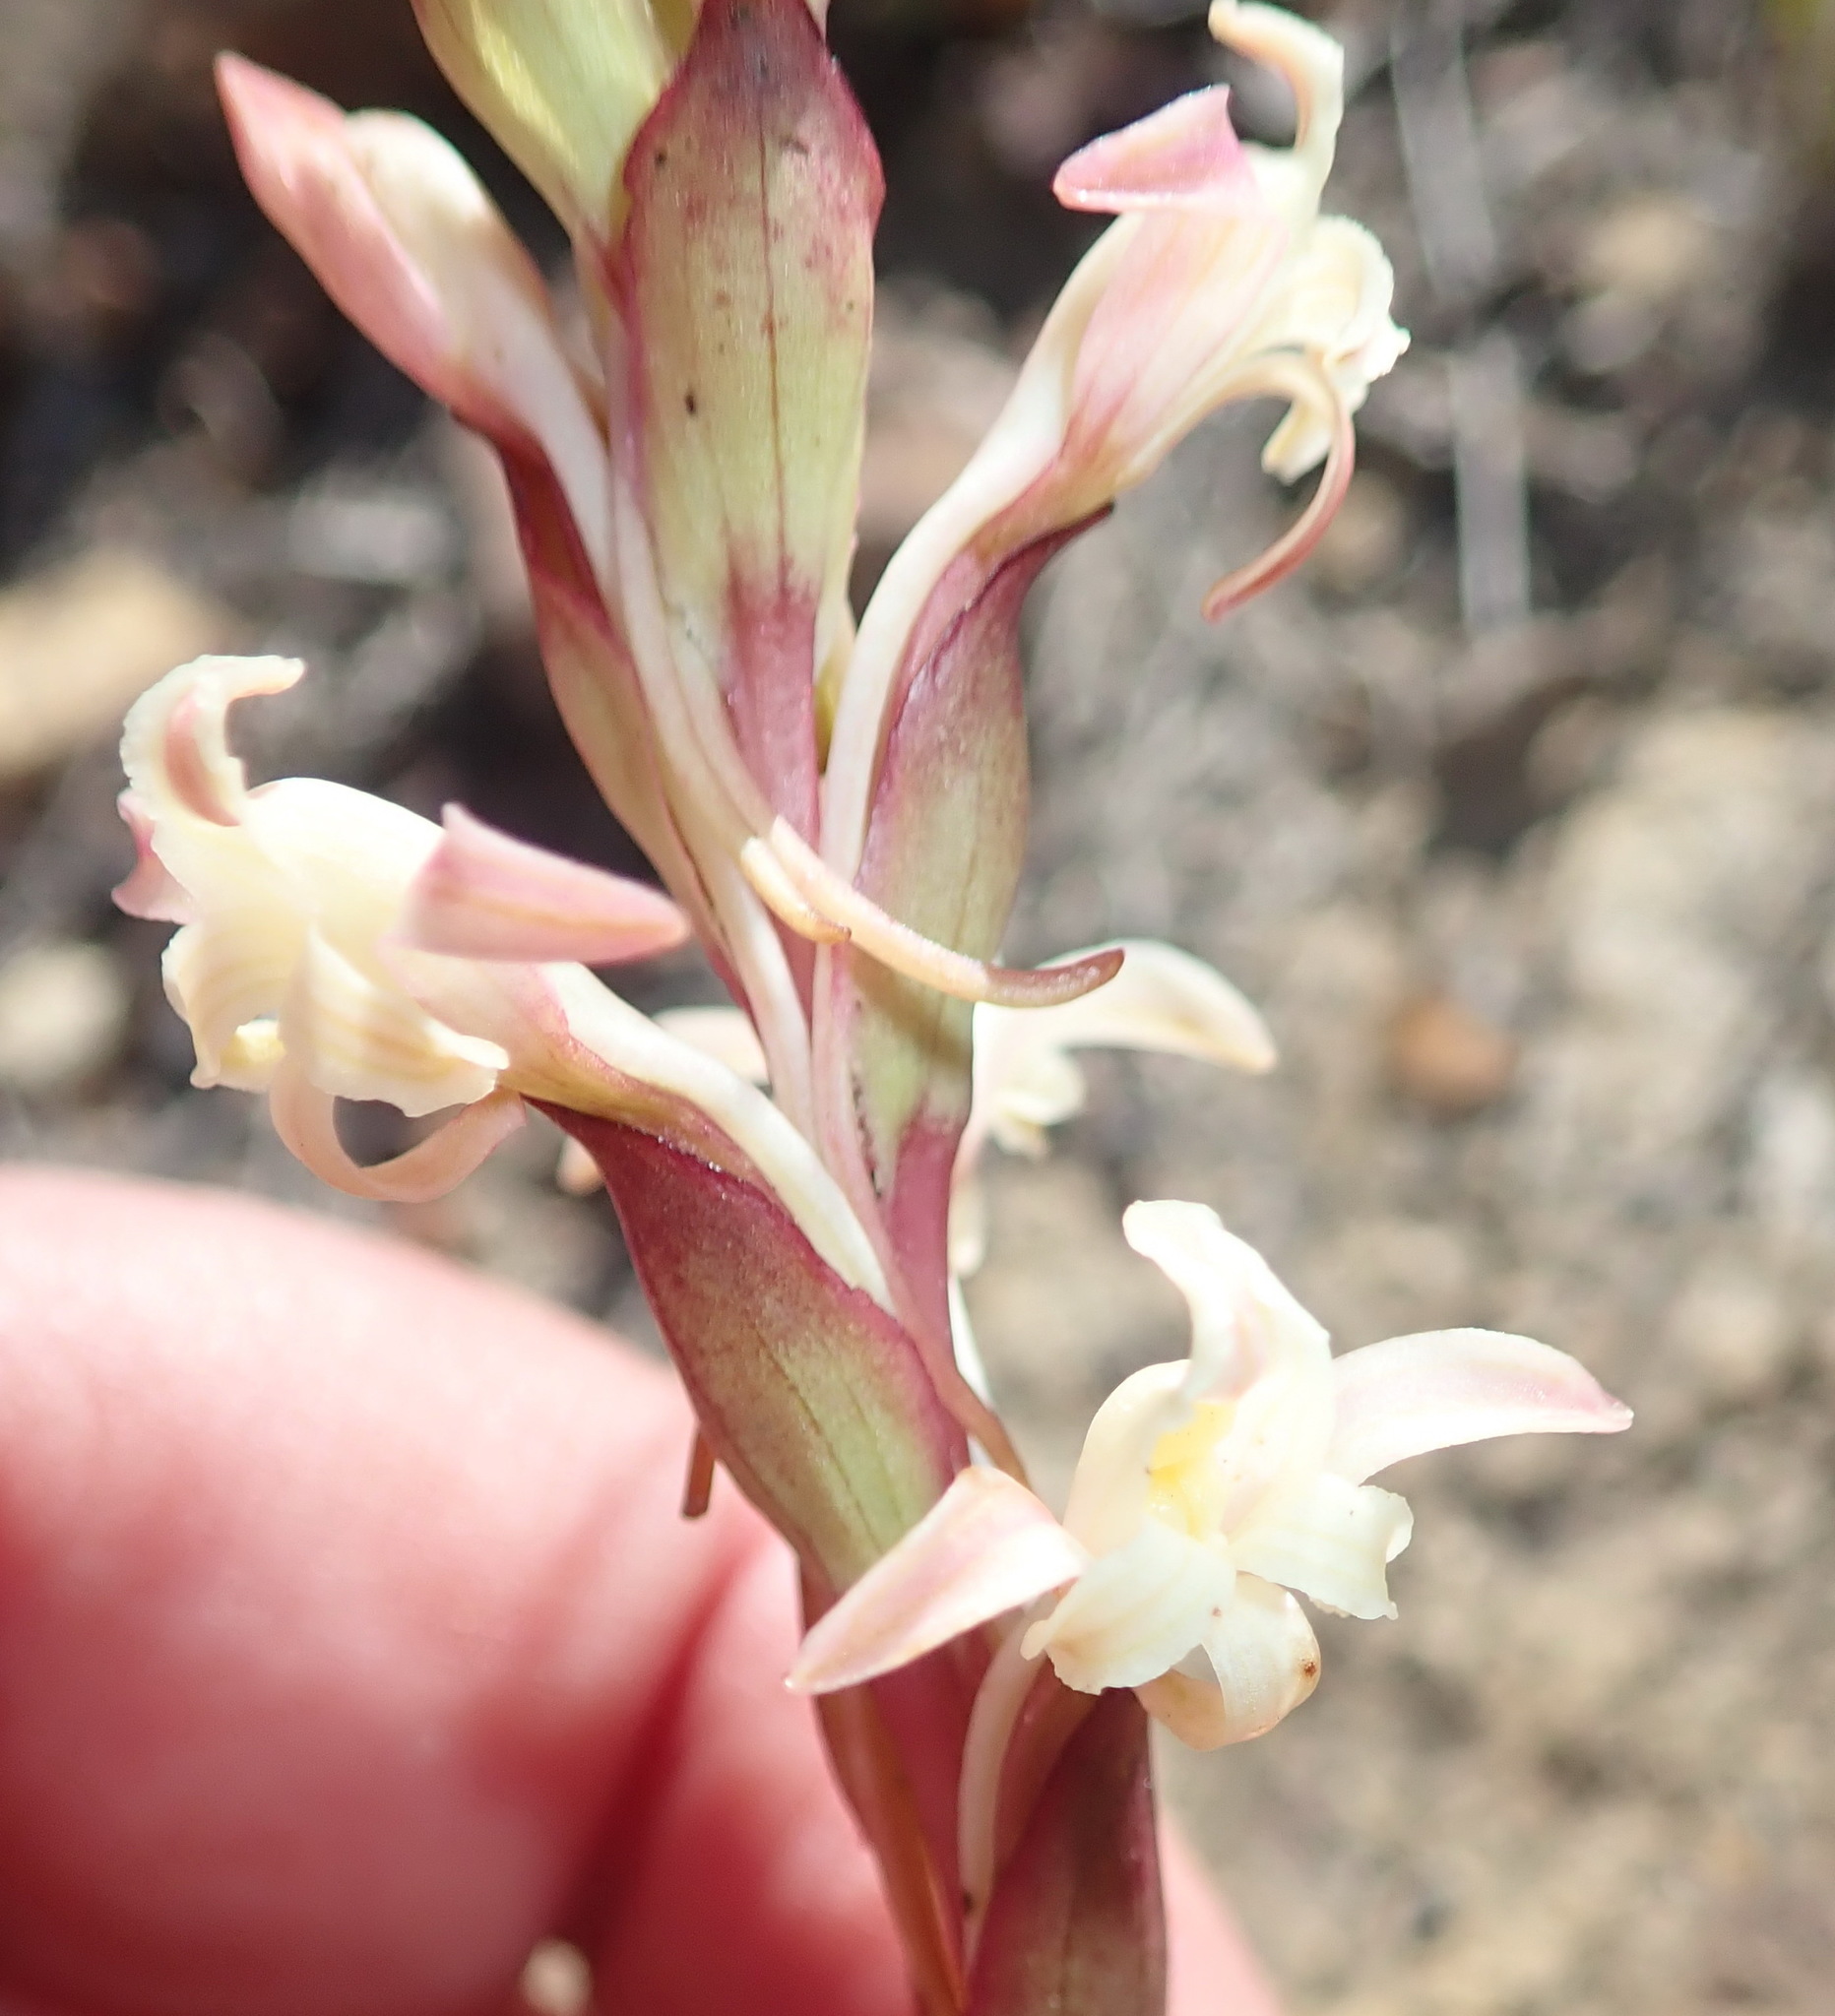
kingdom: Plantae
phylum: Tracheophyta
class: Liliopsida
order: Asparagales
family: Orchidaceae
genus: Satyrium
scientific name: Satyrium stenopetalum
